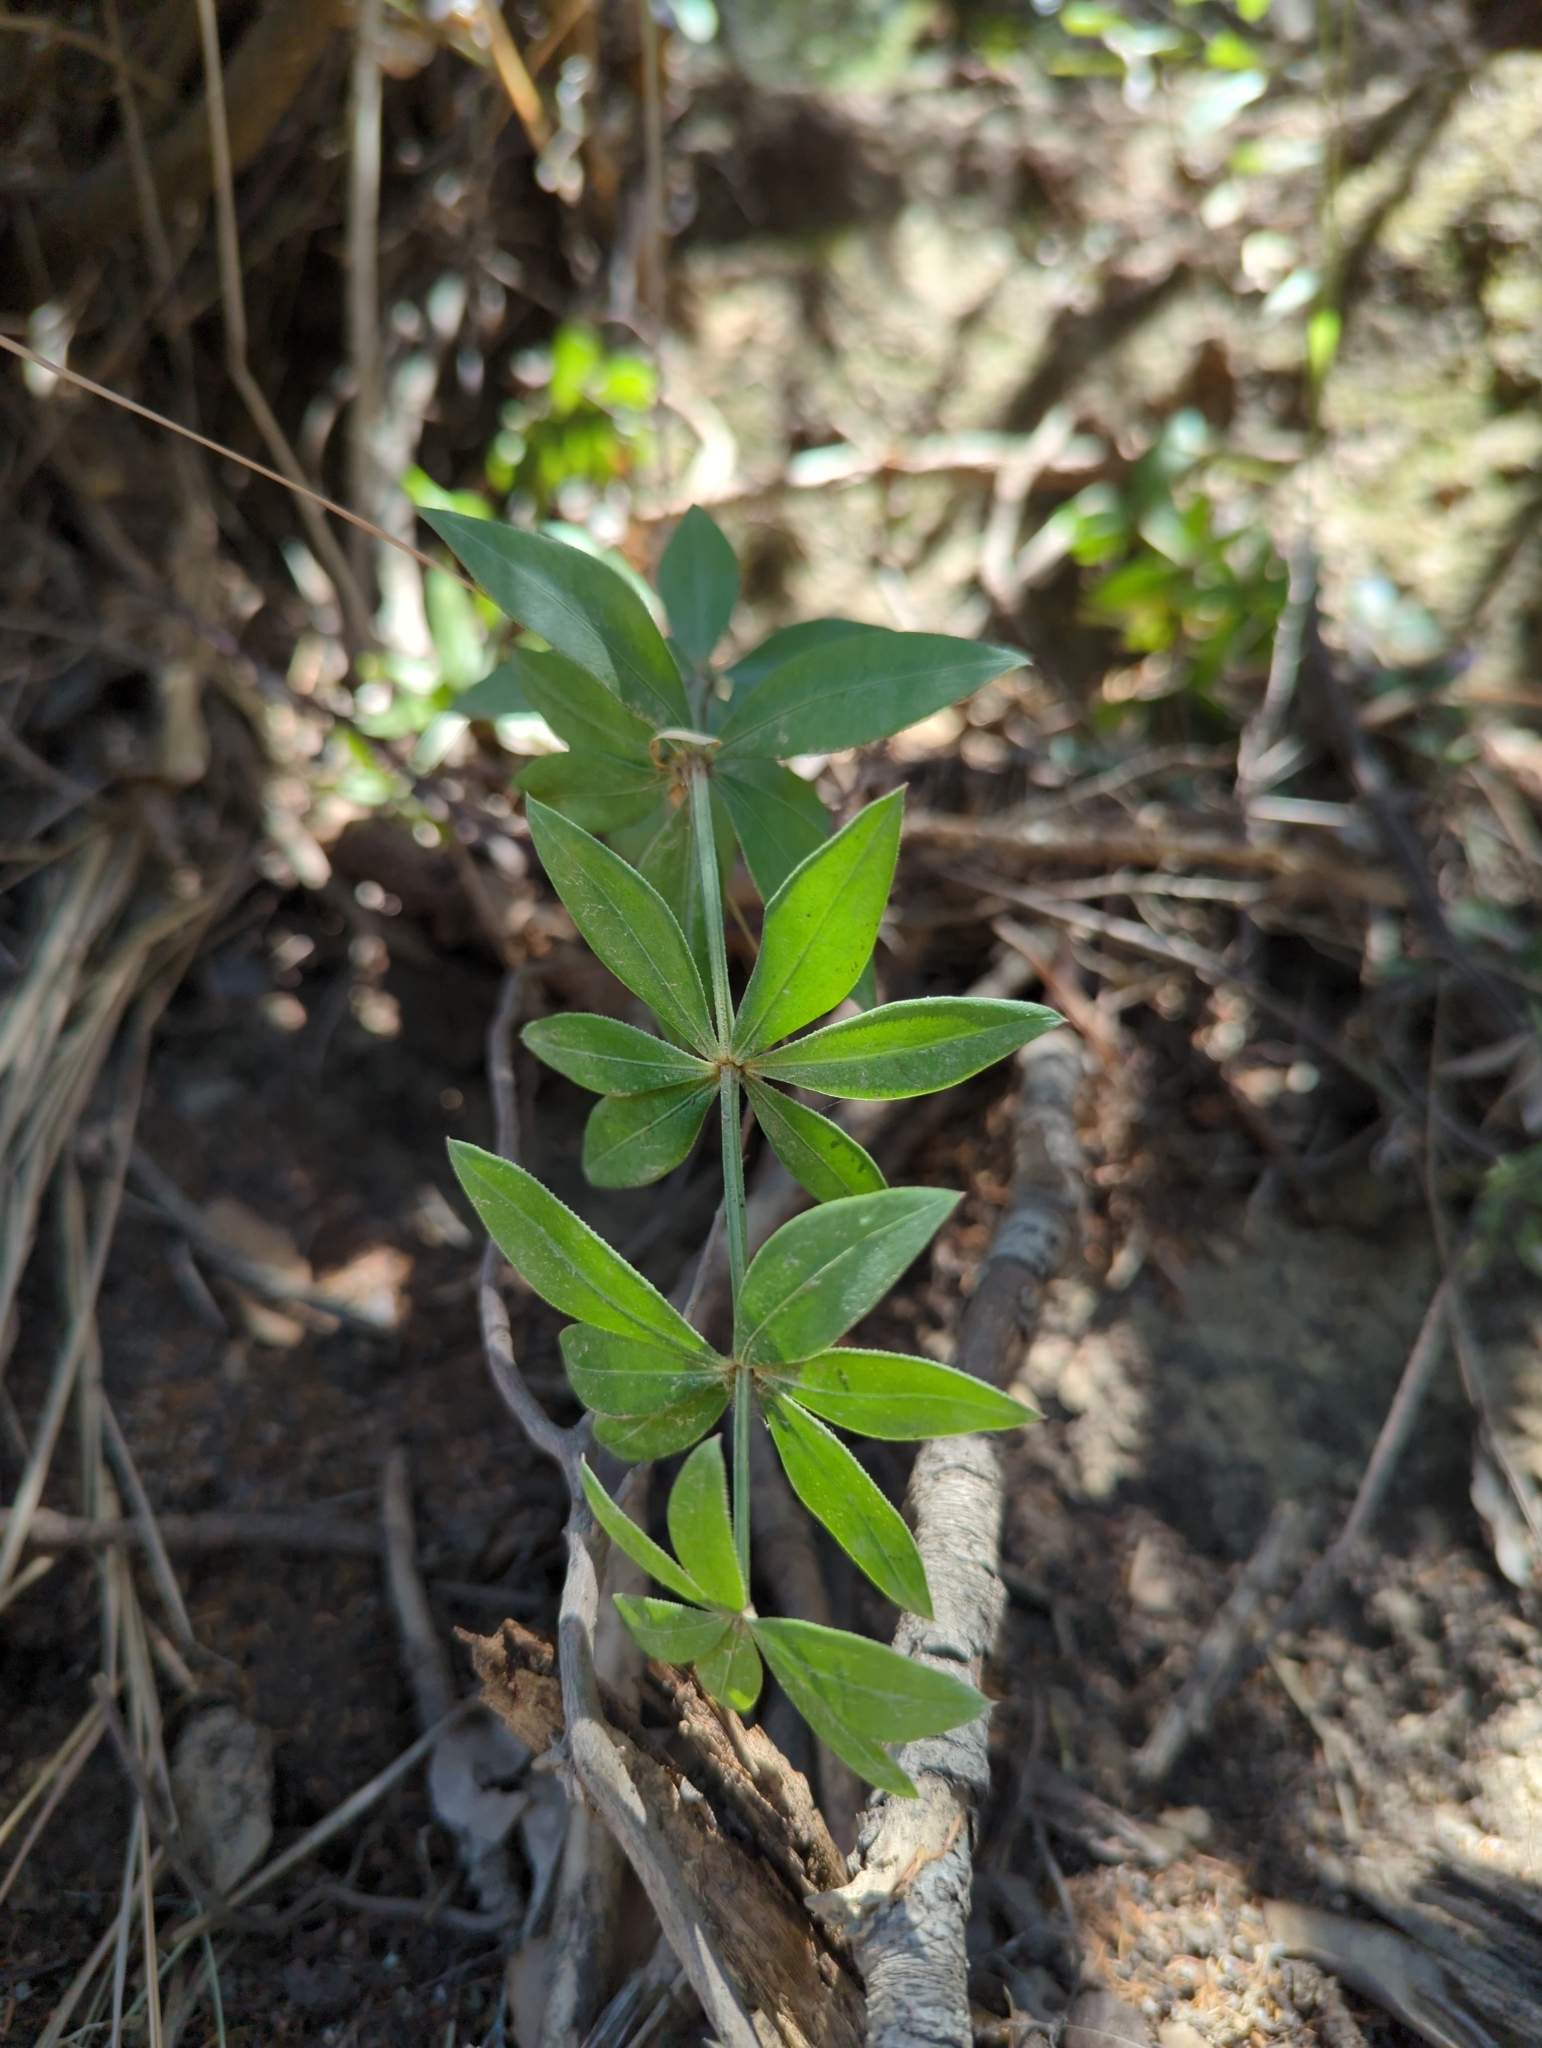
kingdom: Plantae
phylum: Tracheophyta
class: Magnoliopsida
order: Gentianales
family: Rubiaceae
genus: Rubia
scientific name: Rubia peregrina
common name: Wild madder
